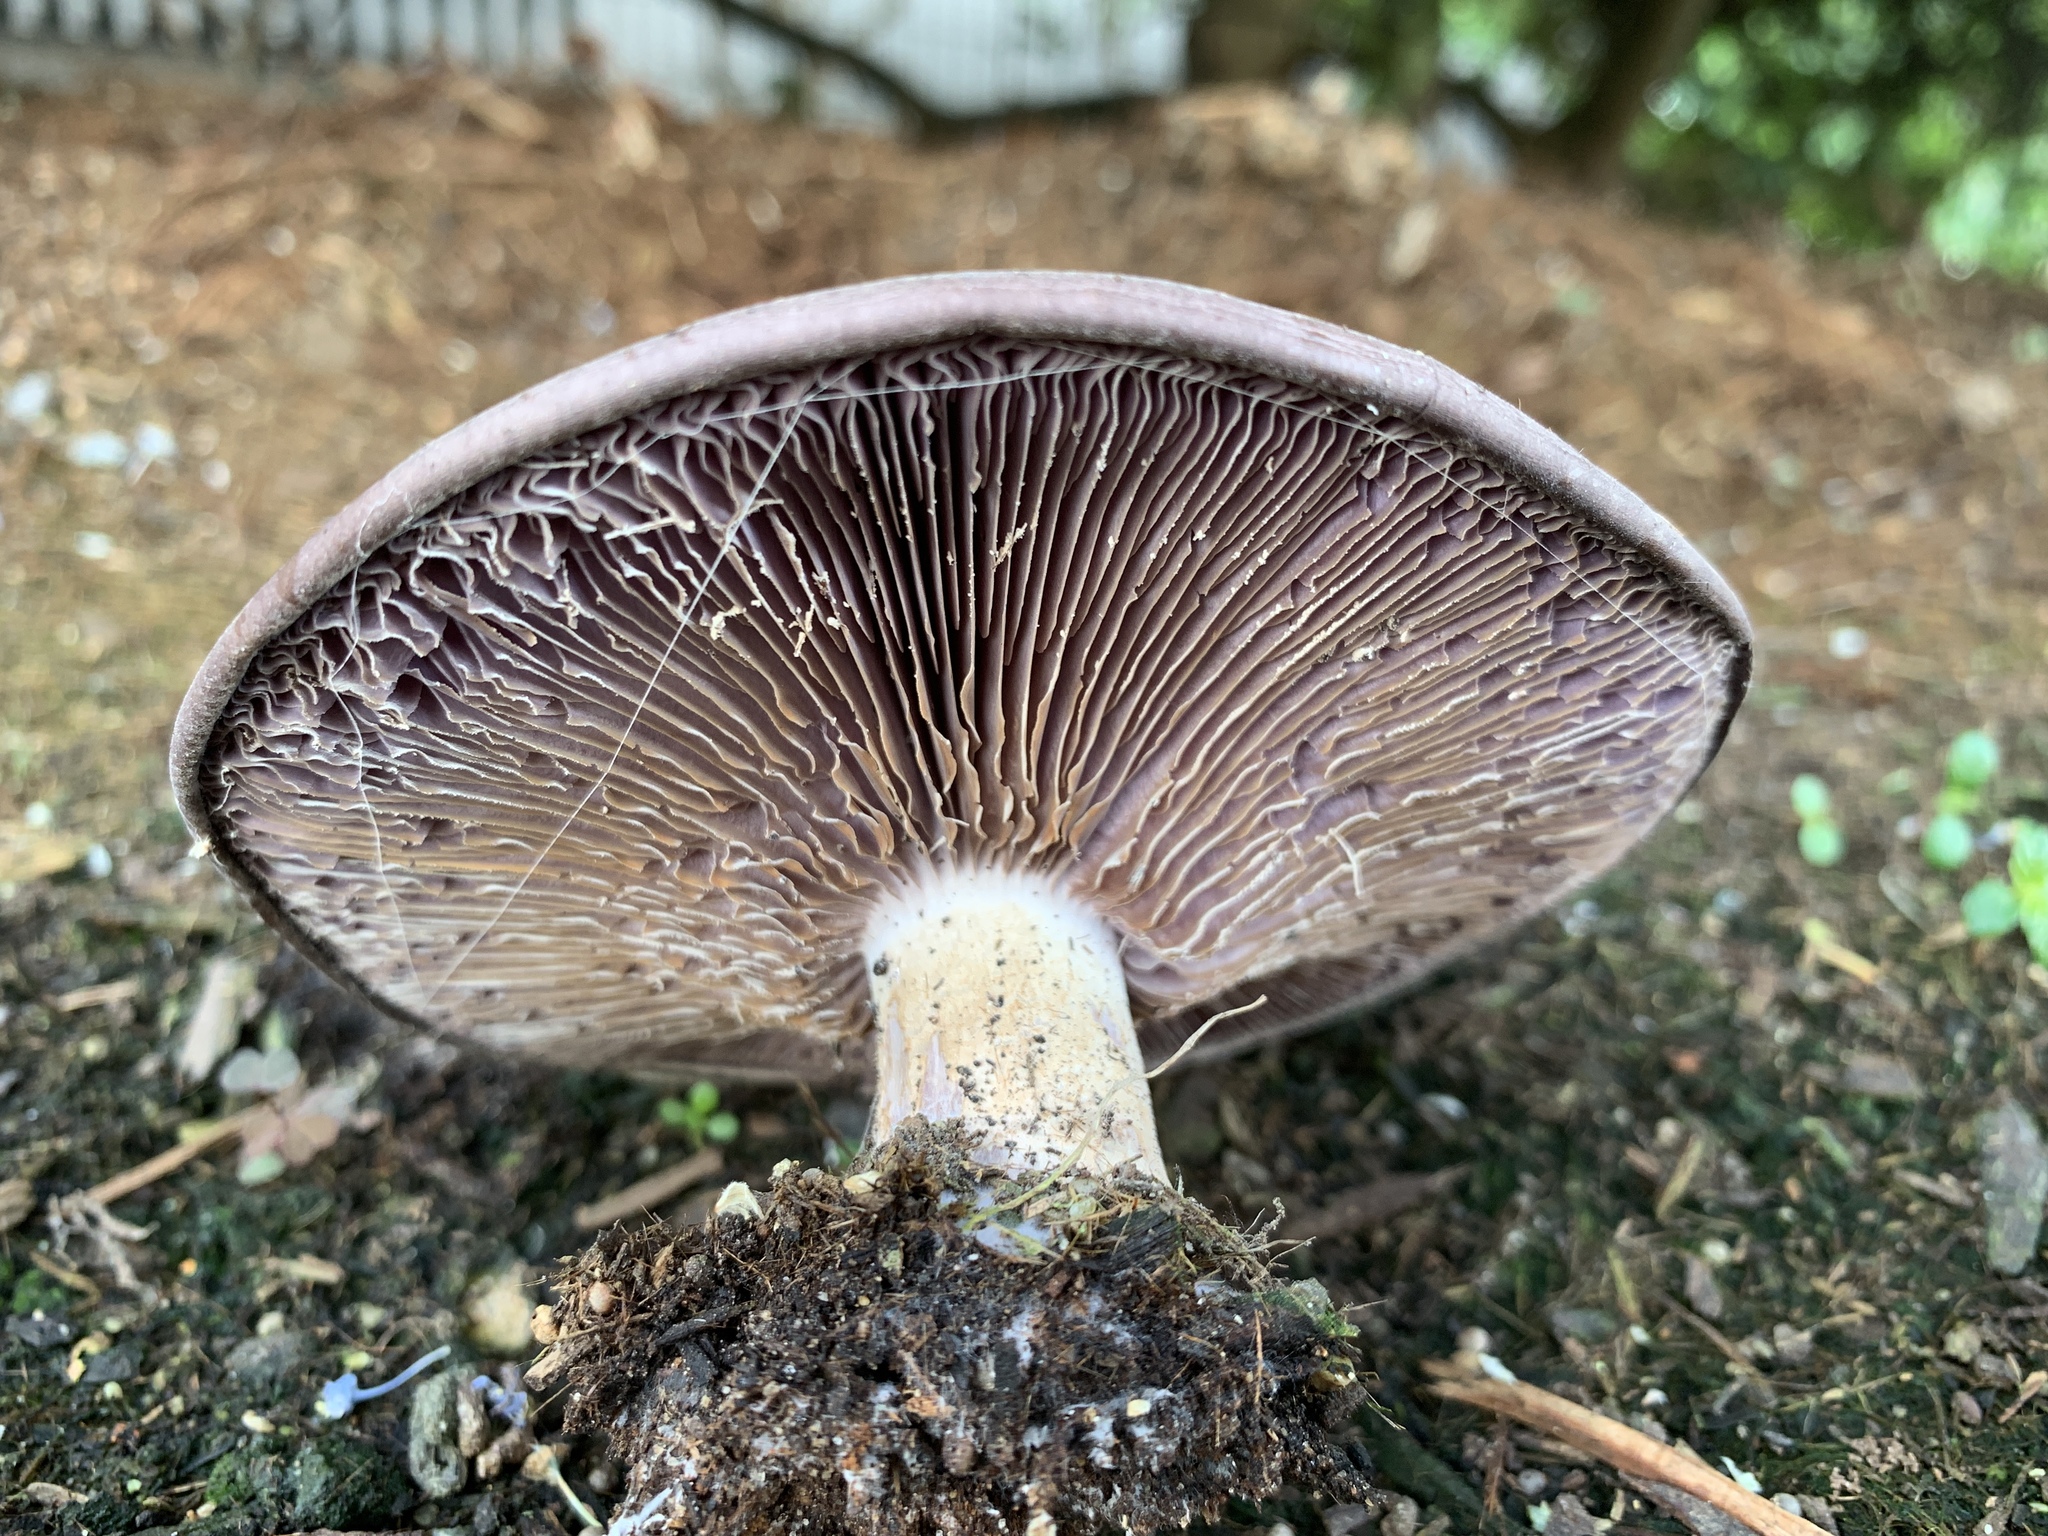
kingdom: Fungi
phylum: Basidiomycota
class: Agaricomycetes
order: Agaricales
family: Tricholomataceae
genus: Collybia
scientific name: Collybia
